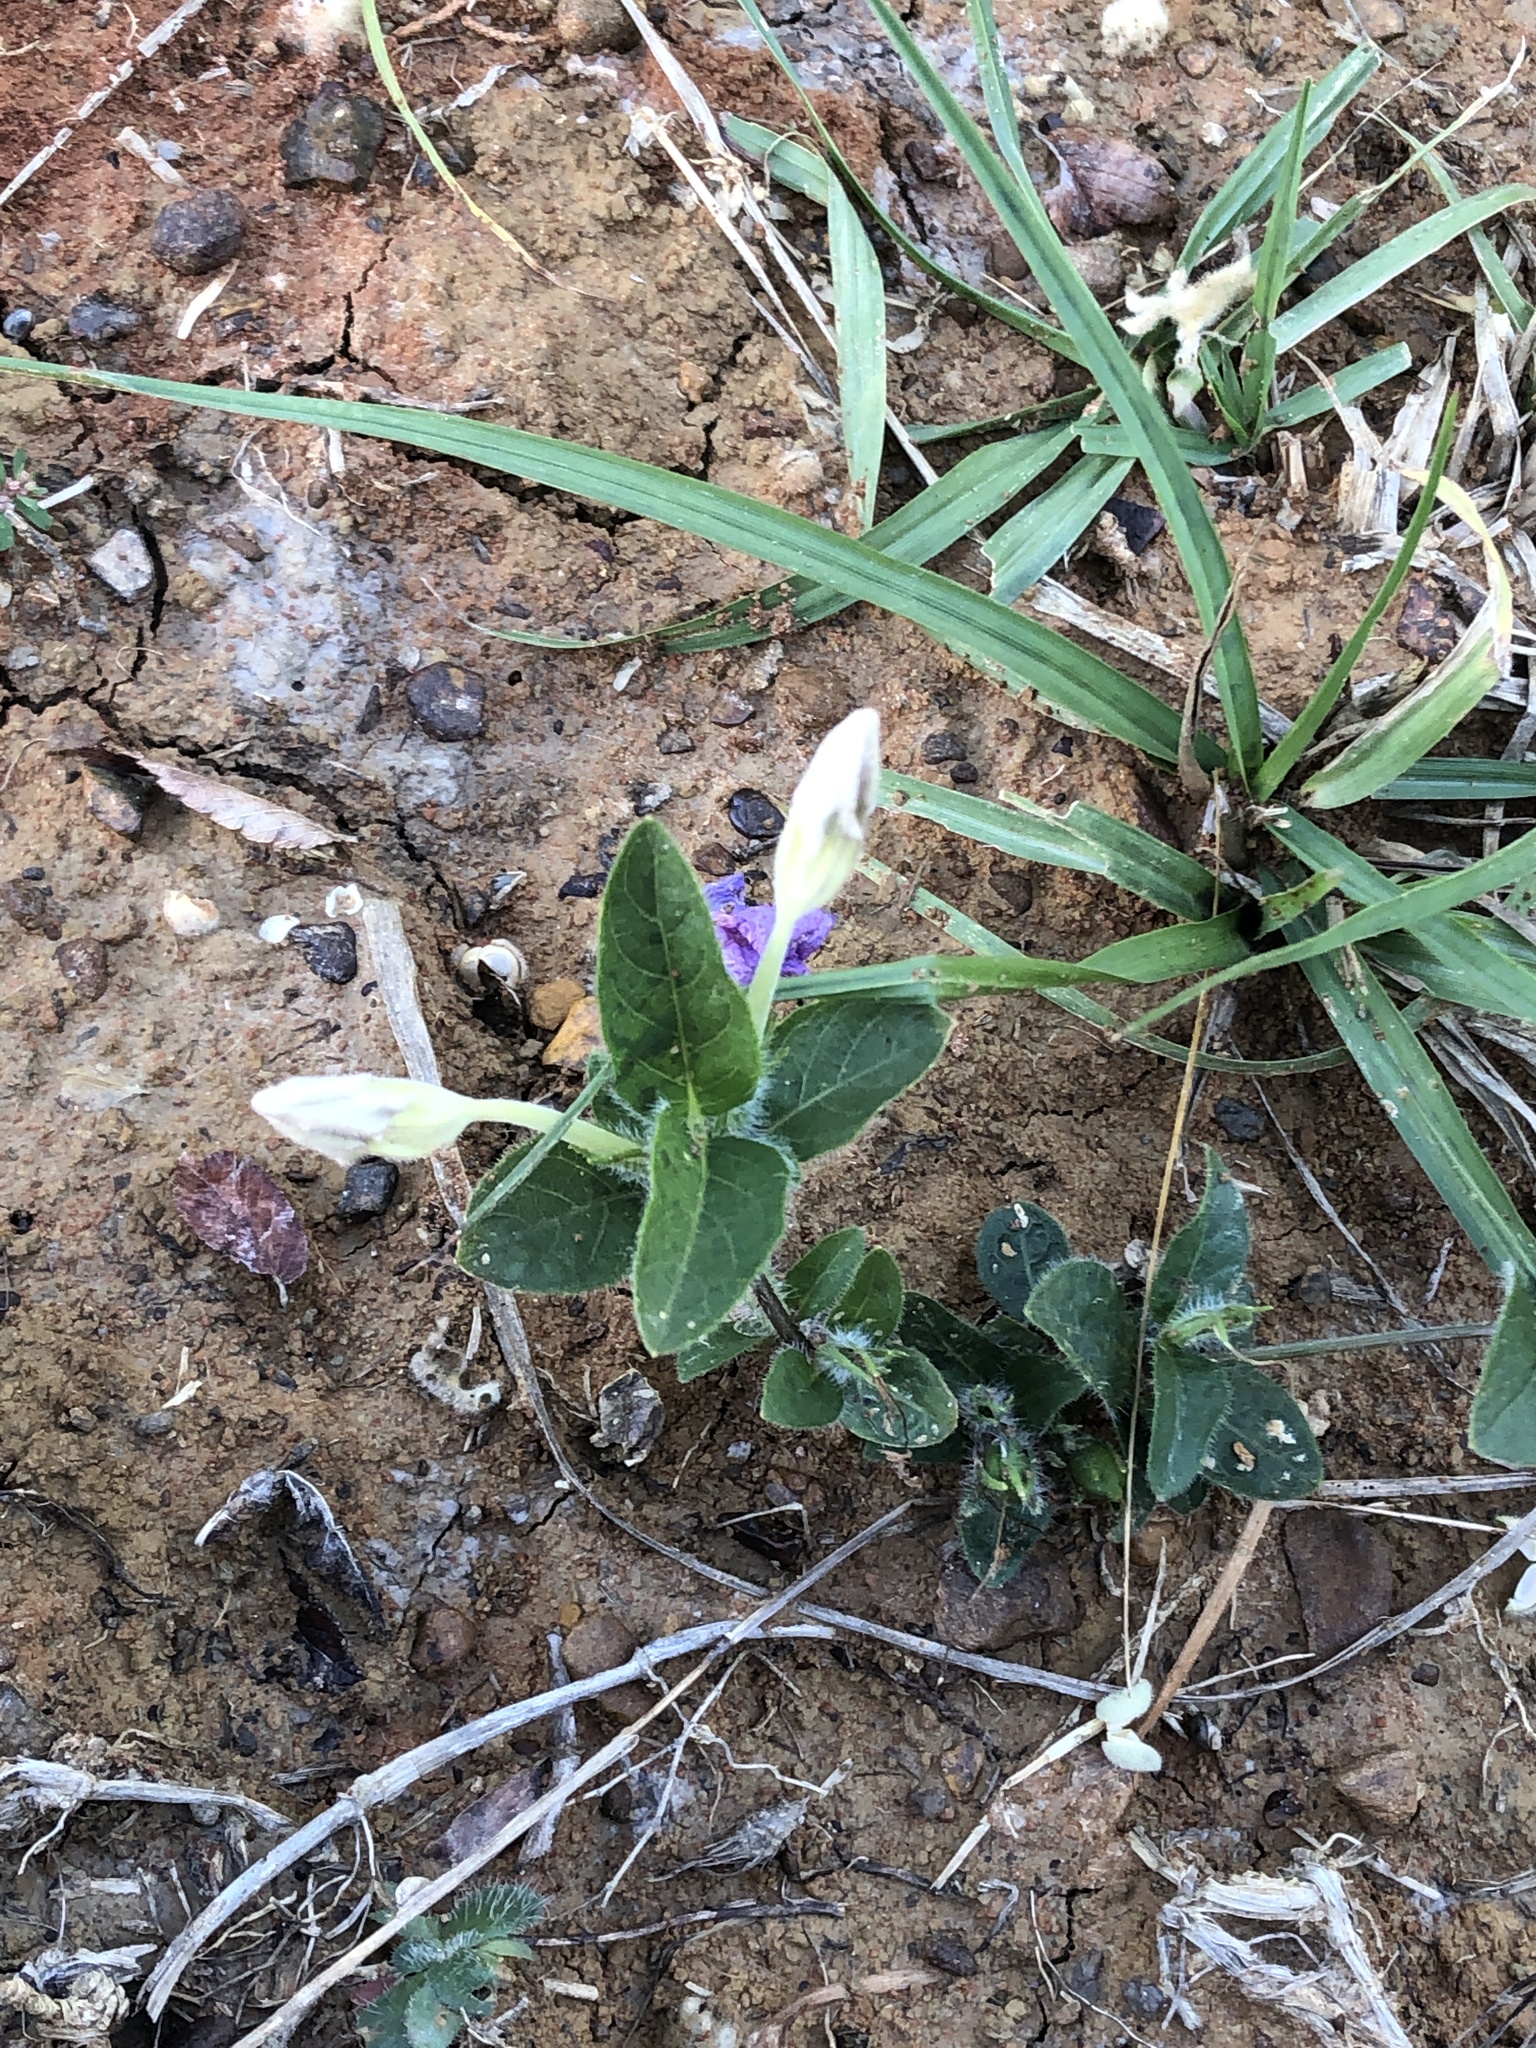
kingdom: Plantae
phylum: Tracheophyta
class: Magnoliopsida
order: Lamiales
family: Acanthaceae
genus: Ruellia
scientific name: Ruellia humilis
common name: Fringe-leaf ruellia
